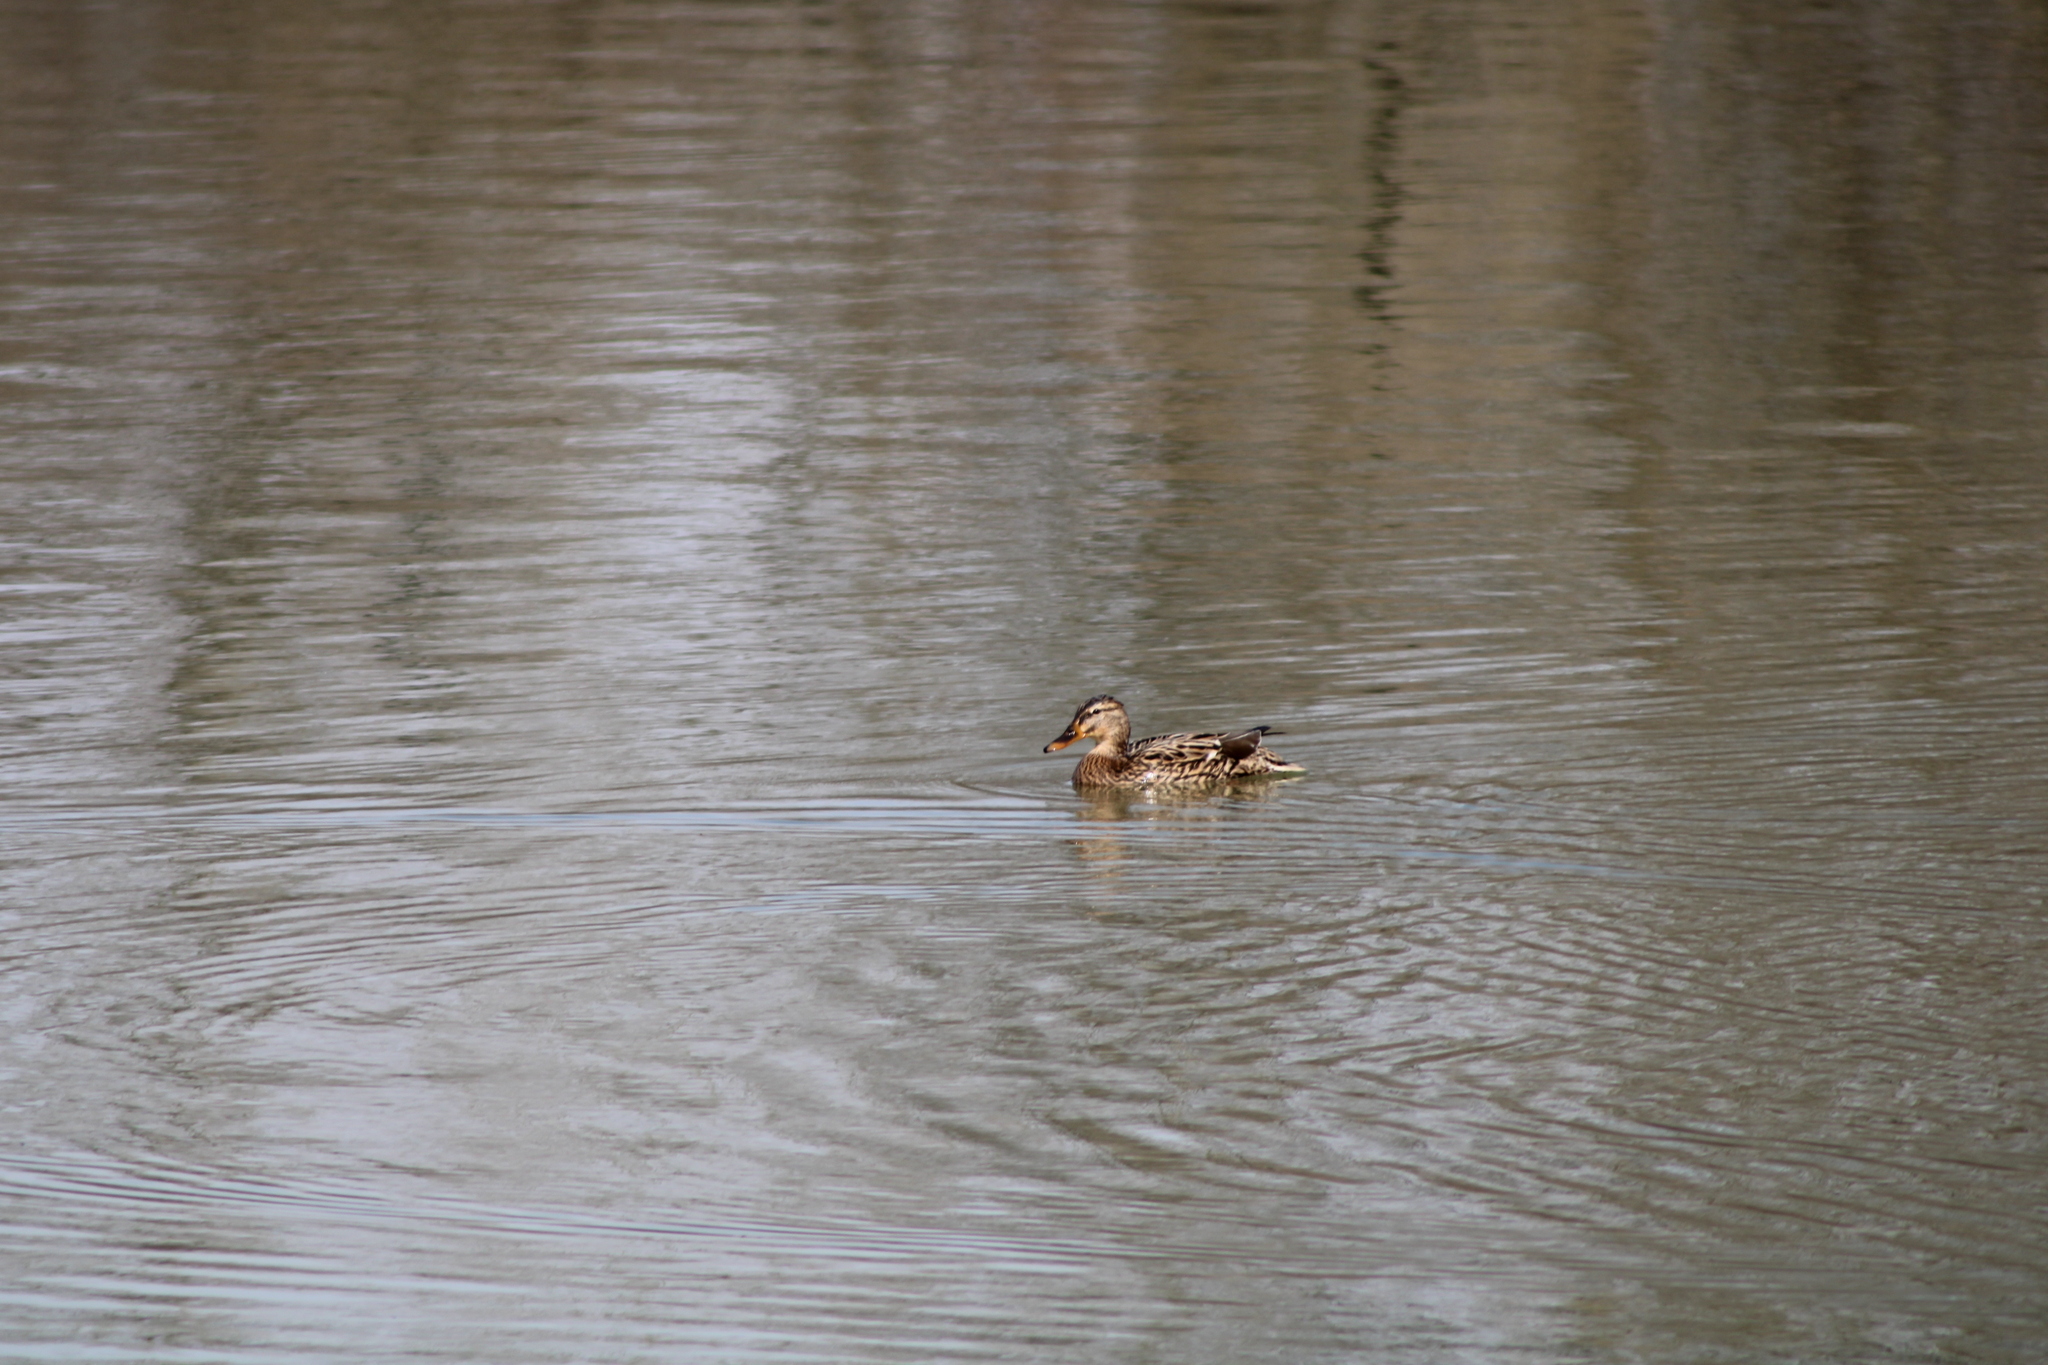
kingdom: Animalia
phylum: Chordata
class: Aves
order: Anseriformes
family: Anatidae
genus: Anas
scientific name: Anas platyrhynchos
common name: Mallard
